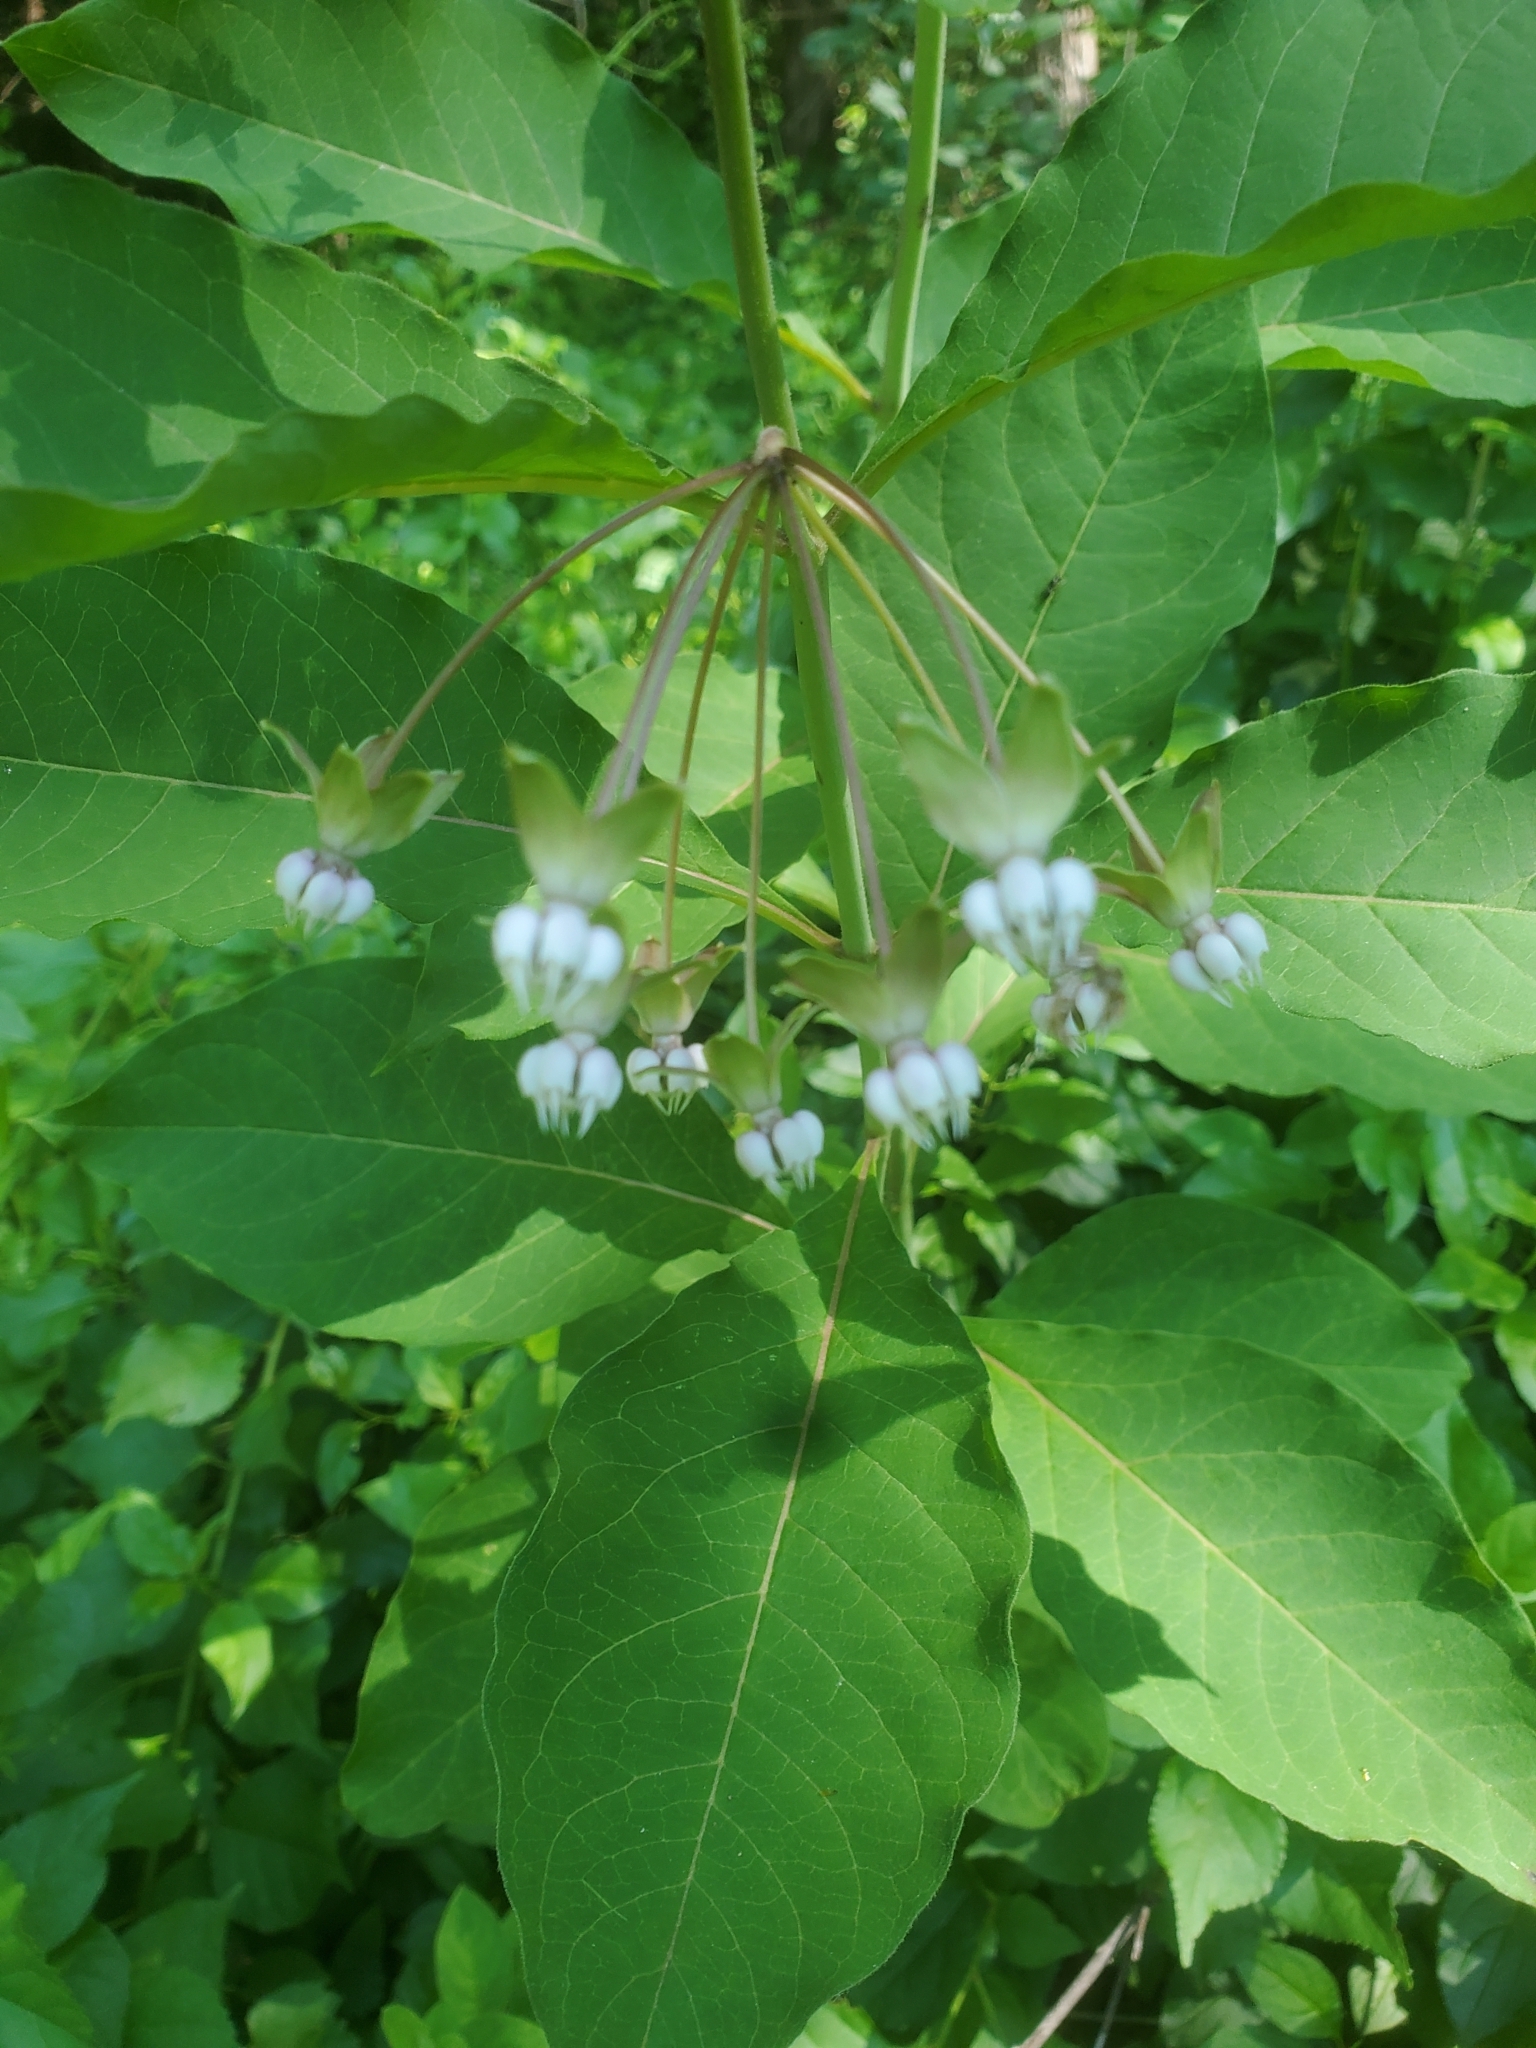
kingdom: Plantae
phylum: Tracheophyta
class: Magnoliopsida
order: Gentianales
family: Apocynaceae
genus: Asclepias
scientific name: Asclepias exaltata
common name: Poke milkweed
